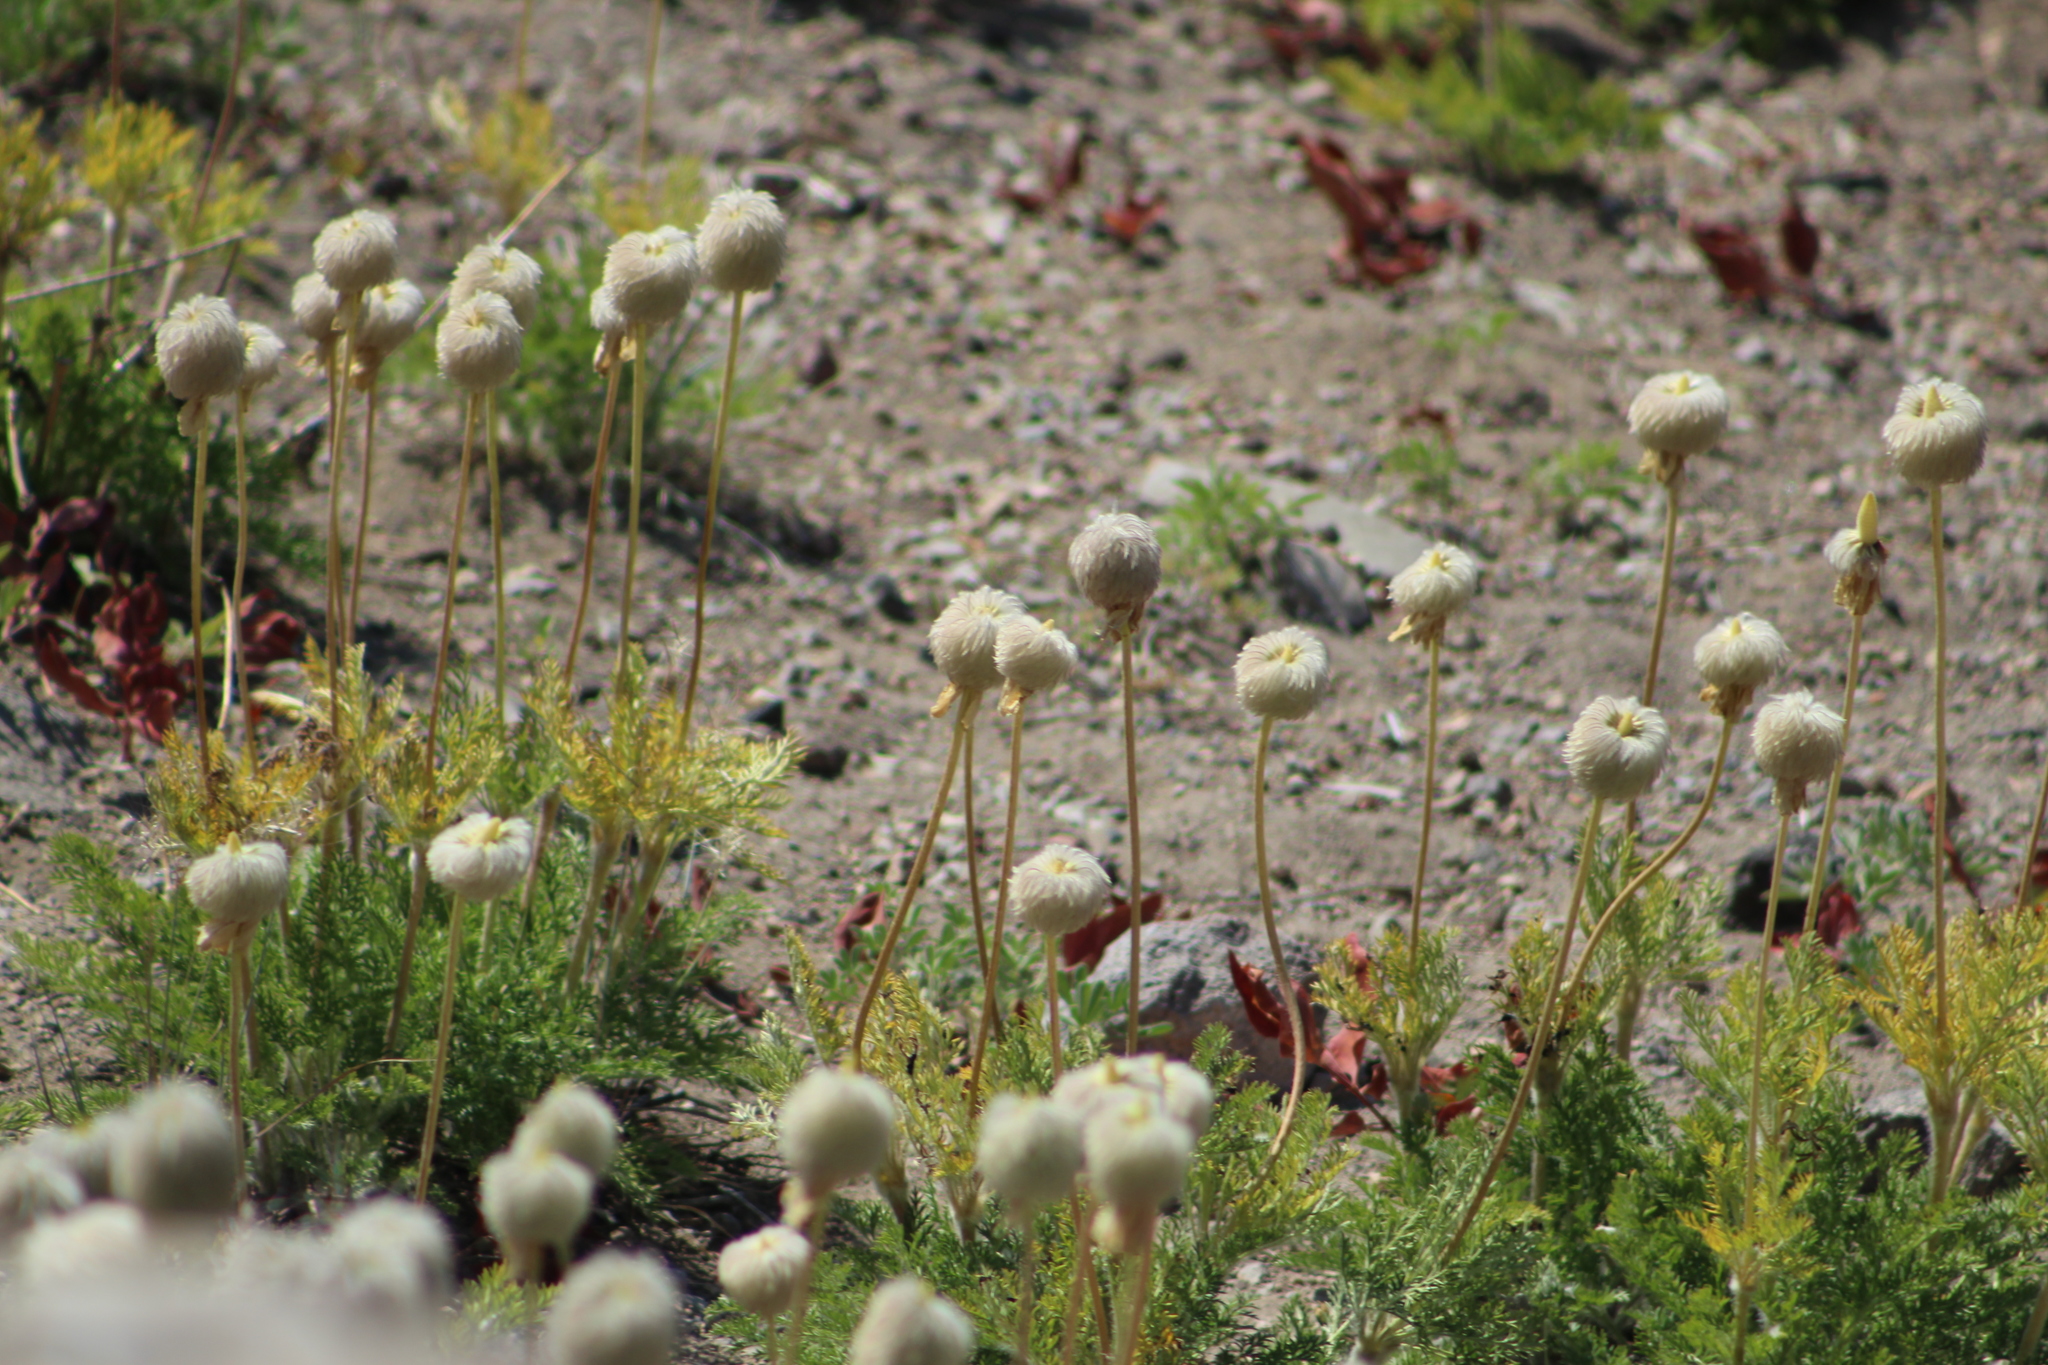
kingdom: Plantae
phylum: Tracheophyta
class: Magnoliopsida
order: Ranunculales
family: Ranunculaceae
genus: Pulsatilla
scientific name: Pulsatilla occidentalis
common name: Mountain pasqueflower
